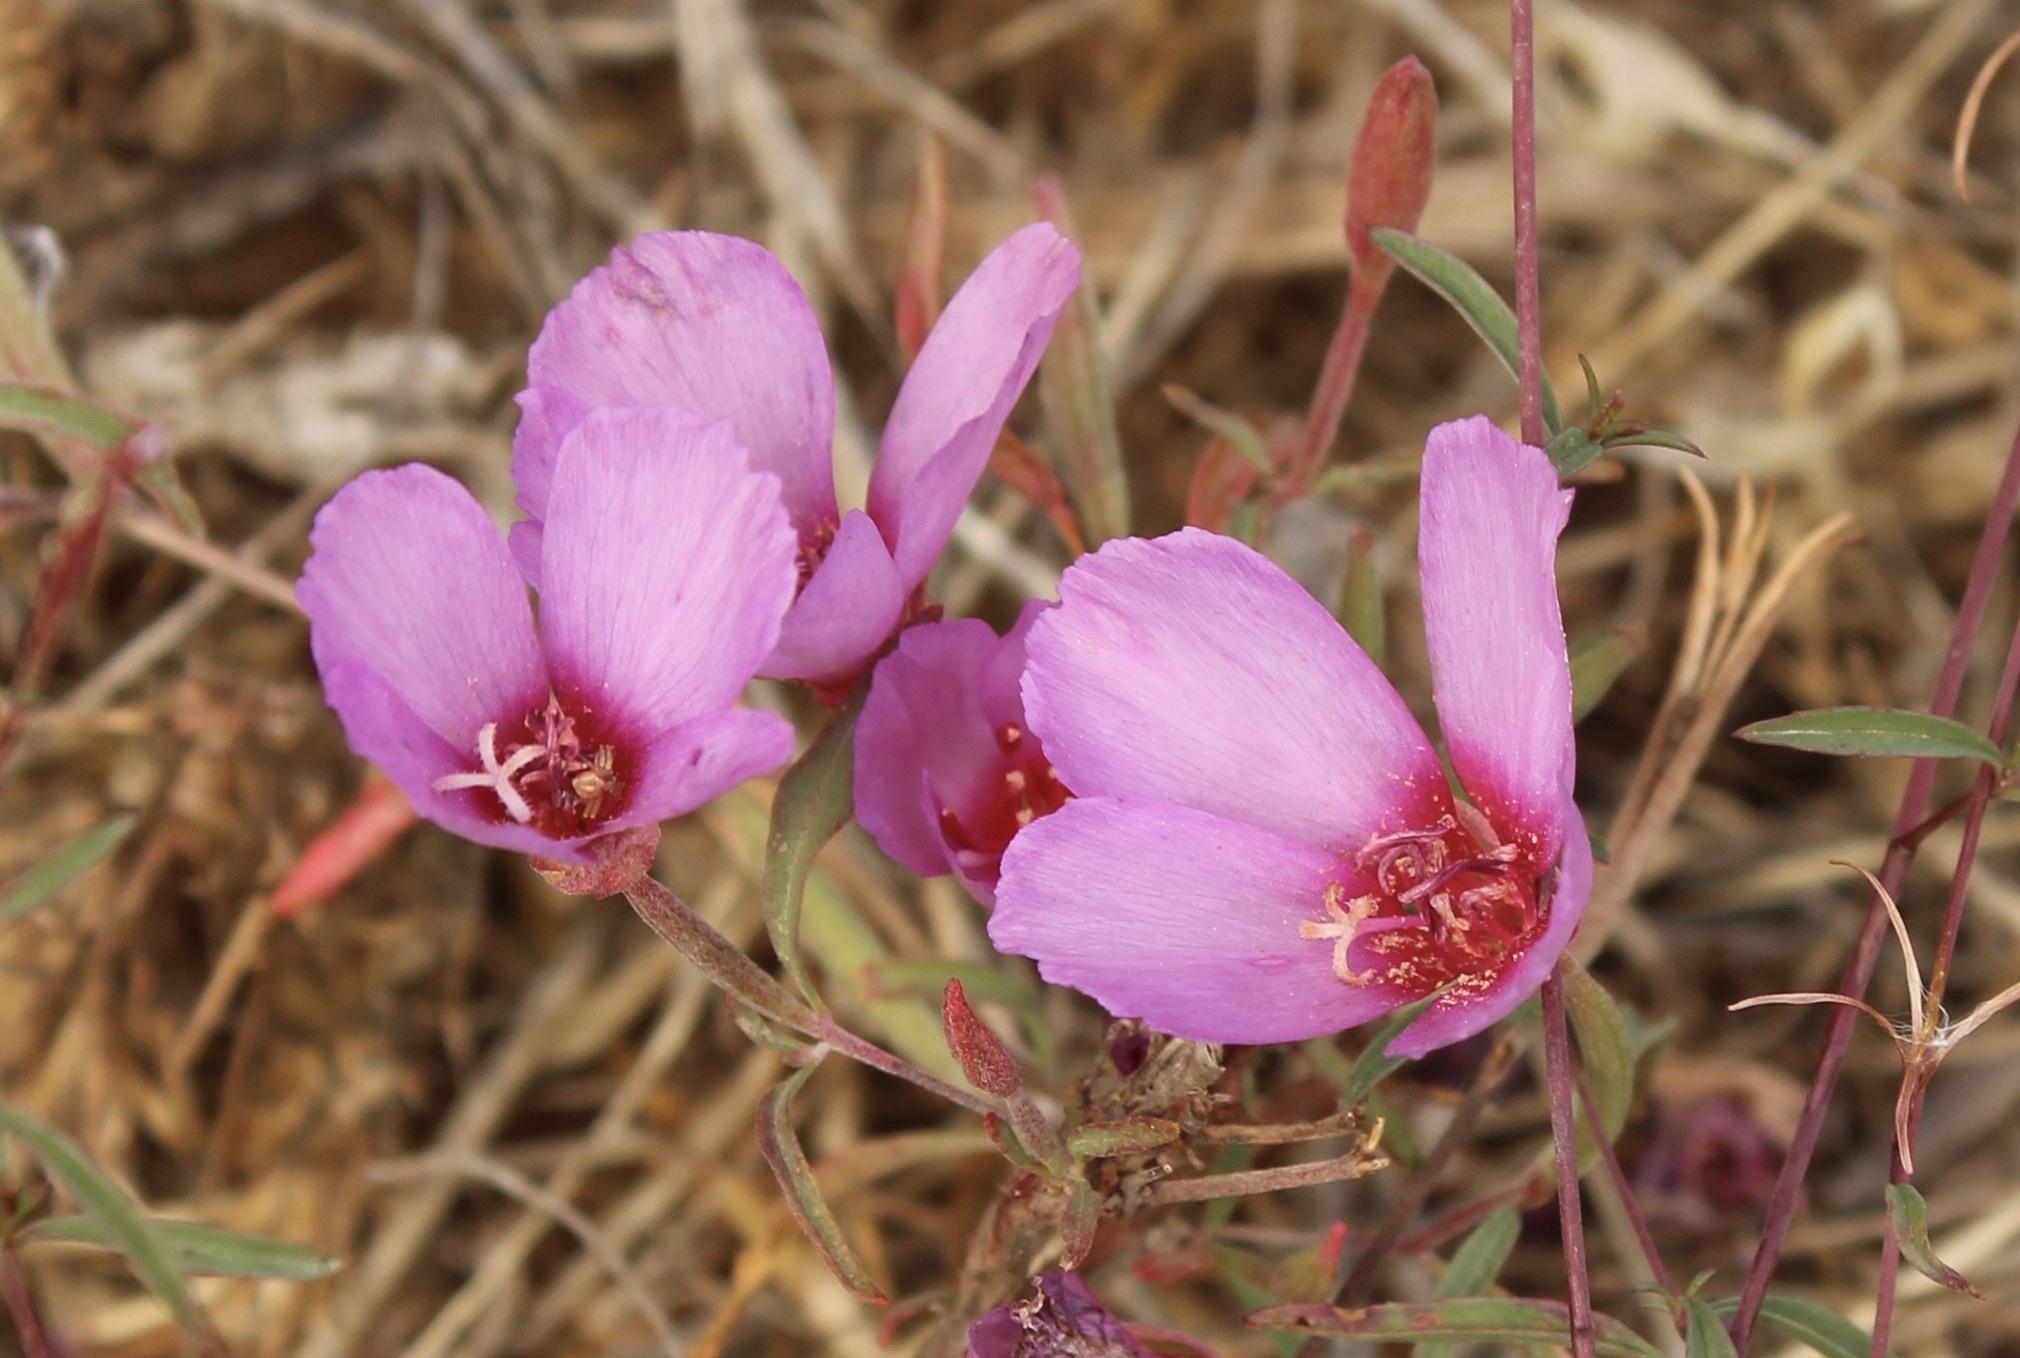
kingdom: Plantae
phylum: Tracheophyta
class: Magnoliopsida
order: Myrtales
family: Onagraceae
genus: Clarkia
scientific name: Clarkia rubicunda
